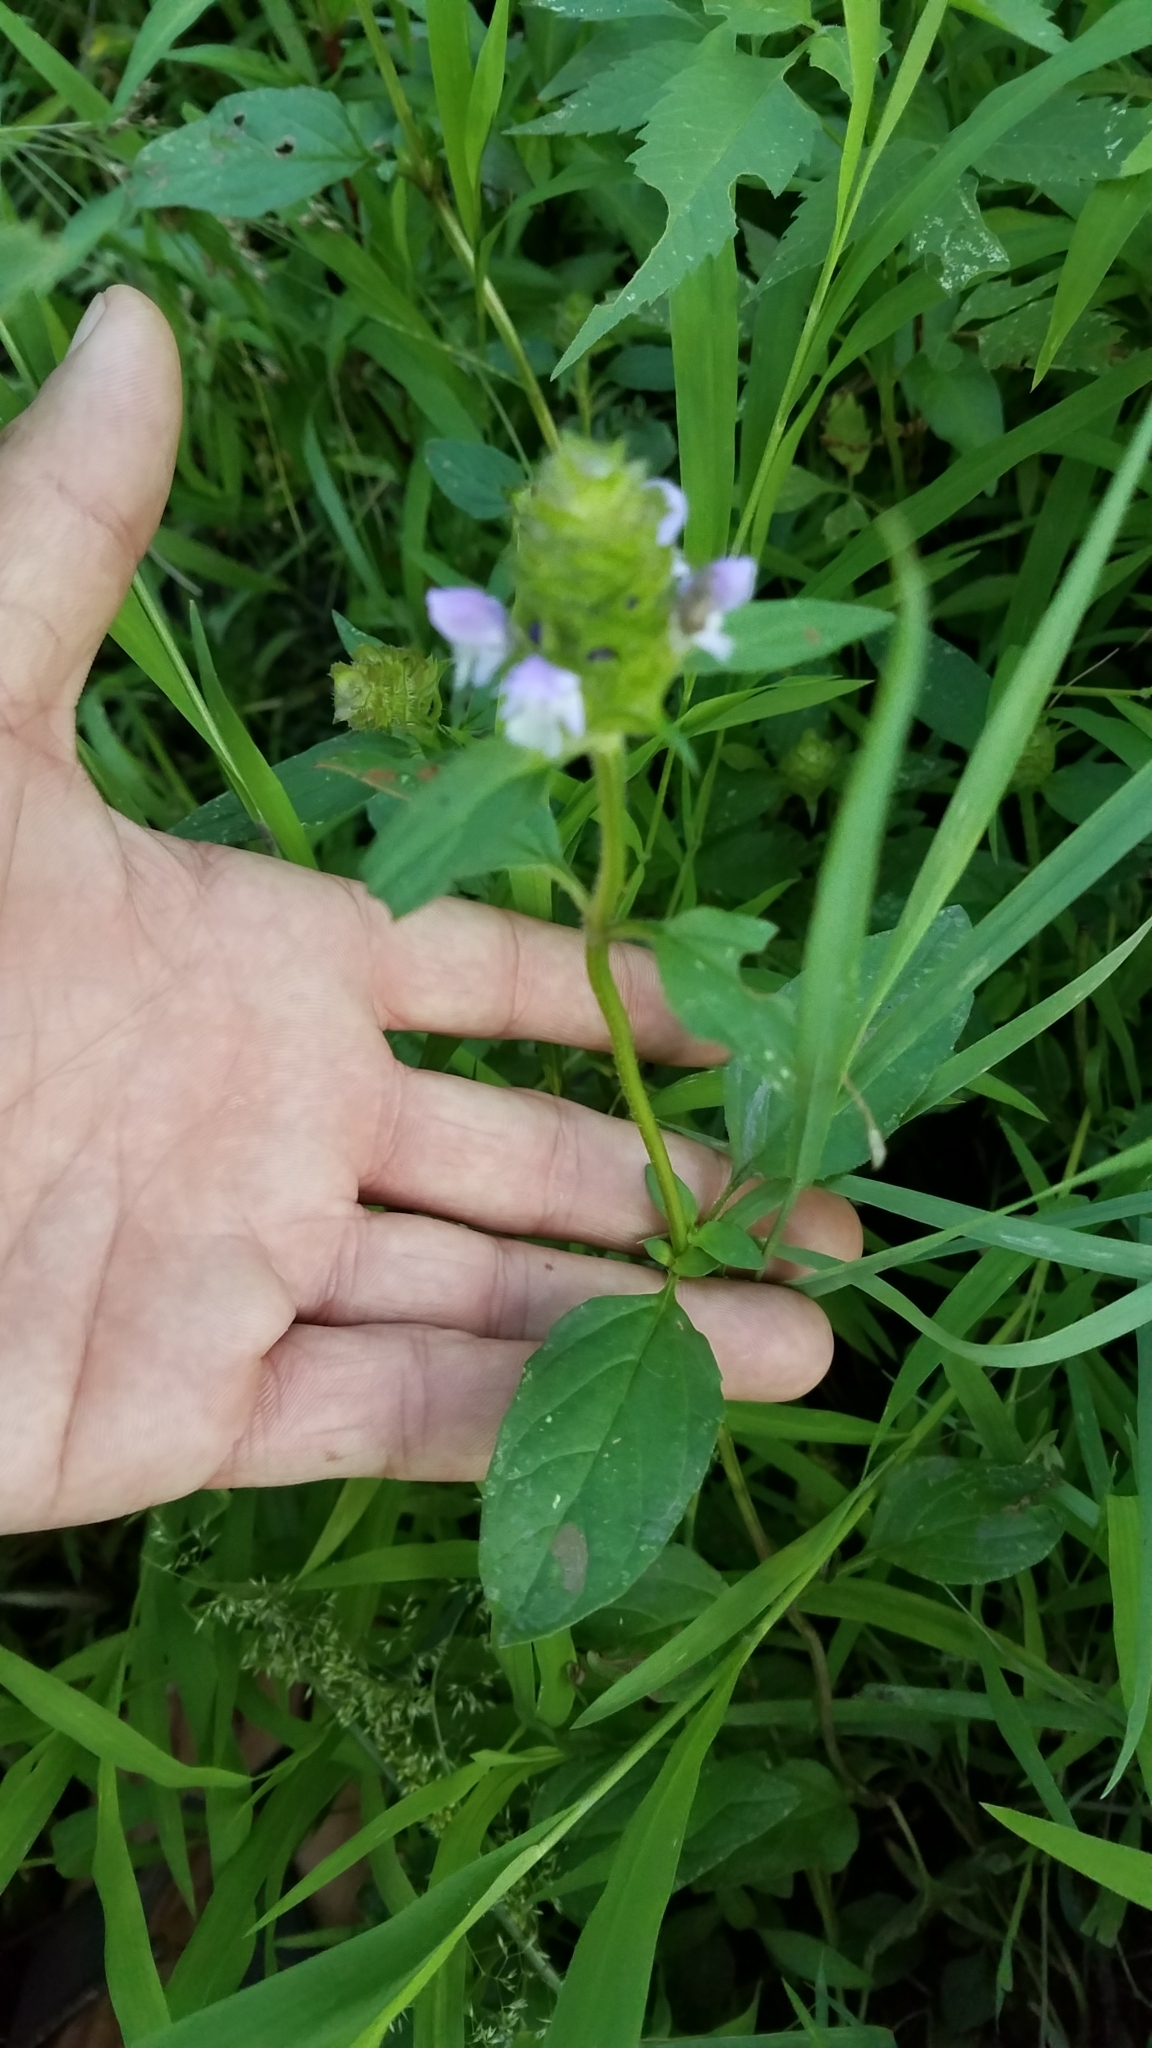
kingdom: Plantae
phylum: Tracheophyta
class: Magnoliopsida
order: Lamiales
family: Lamiaceae
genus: Prunella
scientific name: Prunella vulgaris
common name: Heal-all
